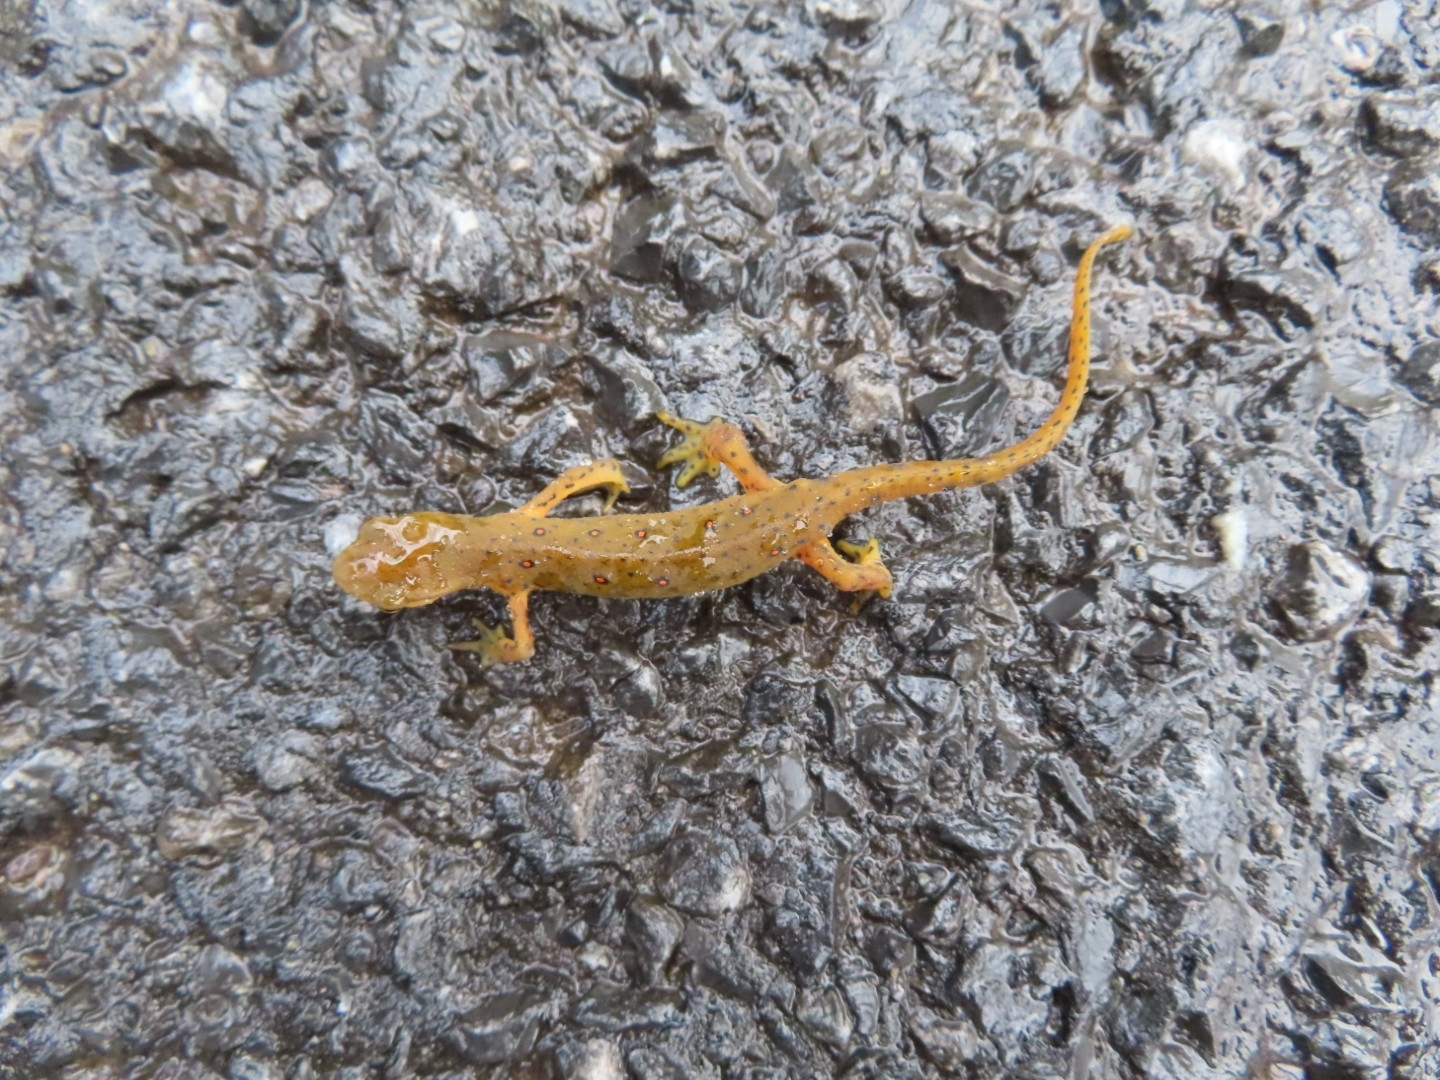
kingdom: Animalia
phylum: Chordata
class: Amphibia
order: Caudata
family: Salamandridae
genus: Notophthalmus
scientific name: Notophthalmus viridescens
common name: Eastern newt
